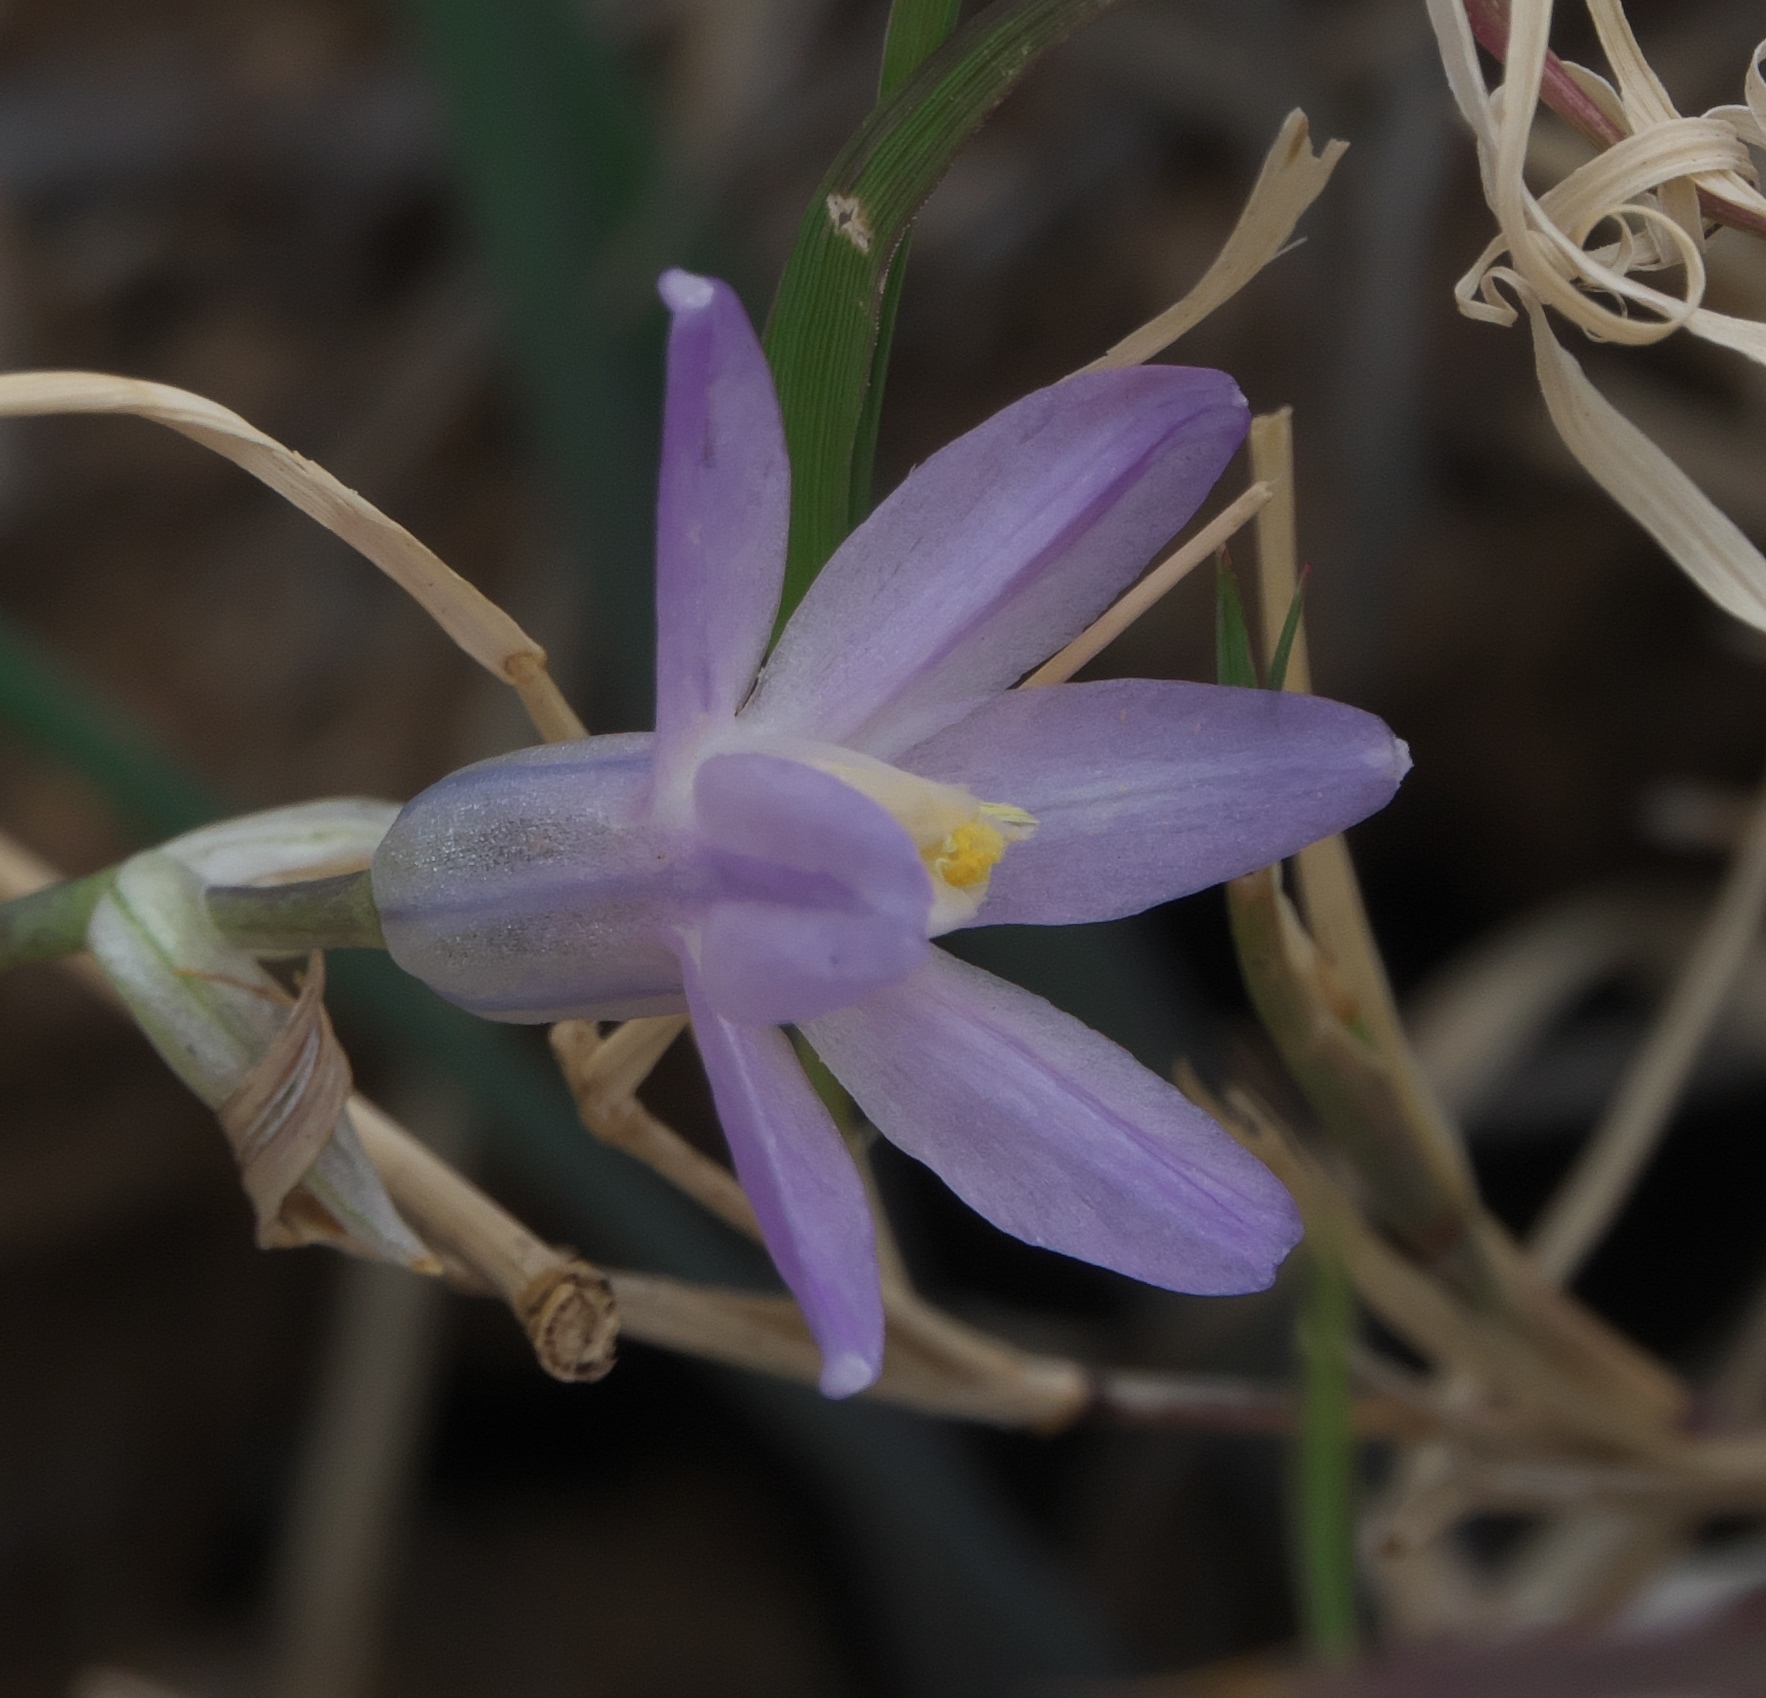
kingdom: Plantae
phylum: Tracheophyta
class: Liliopsida
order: Asparagales
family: Asparagaceae
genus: Dipterostemon
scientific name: Dipterostemon capitatus
